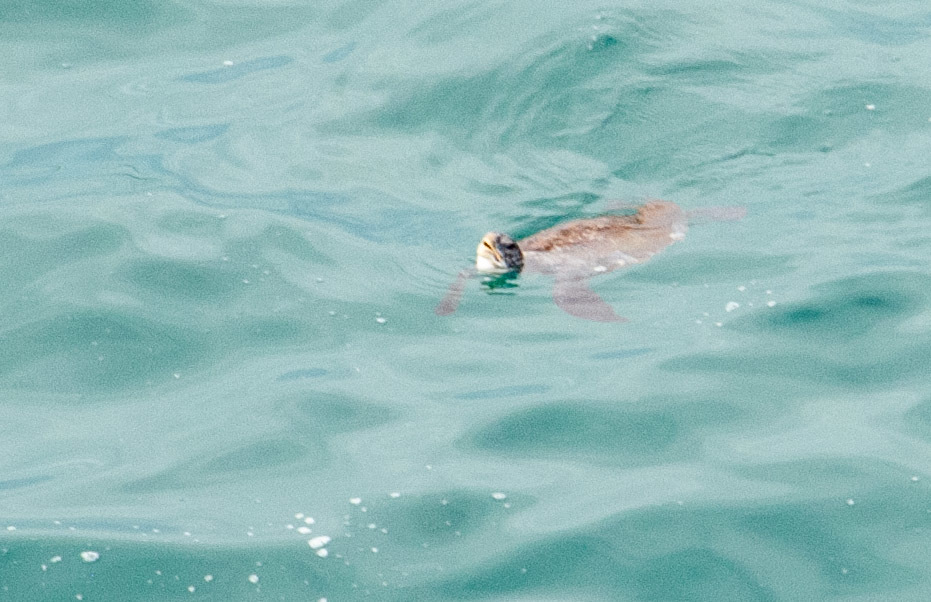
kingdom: Animalia
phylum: Chordata
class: Testudines
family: Cheloniidae
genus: Chelonia
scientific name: Chelonia mydas
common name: Green turtle
